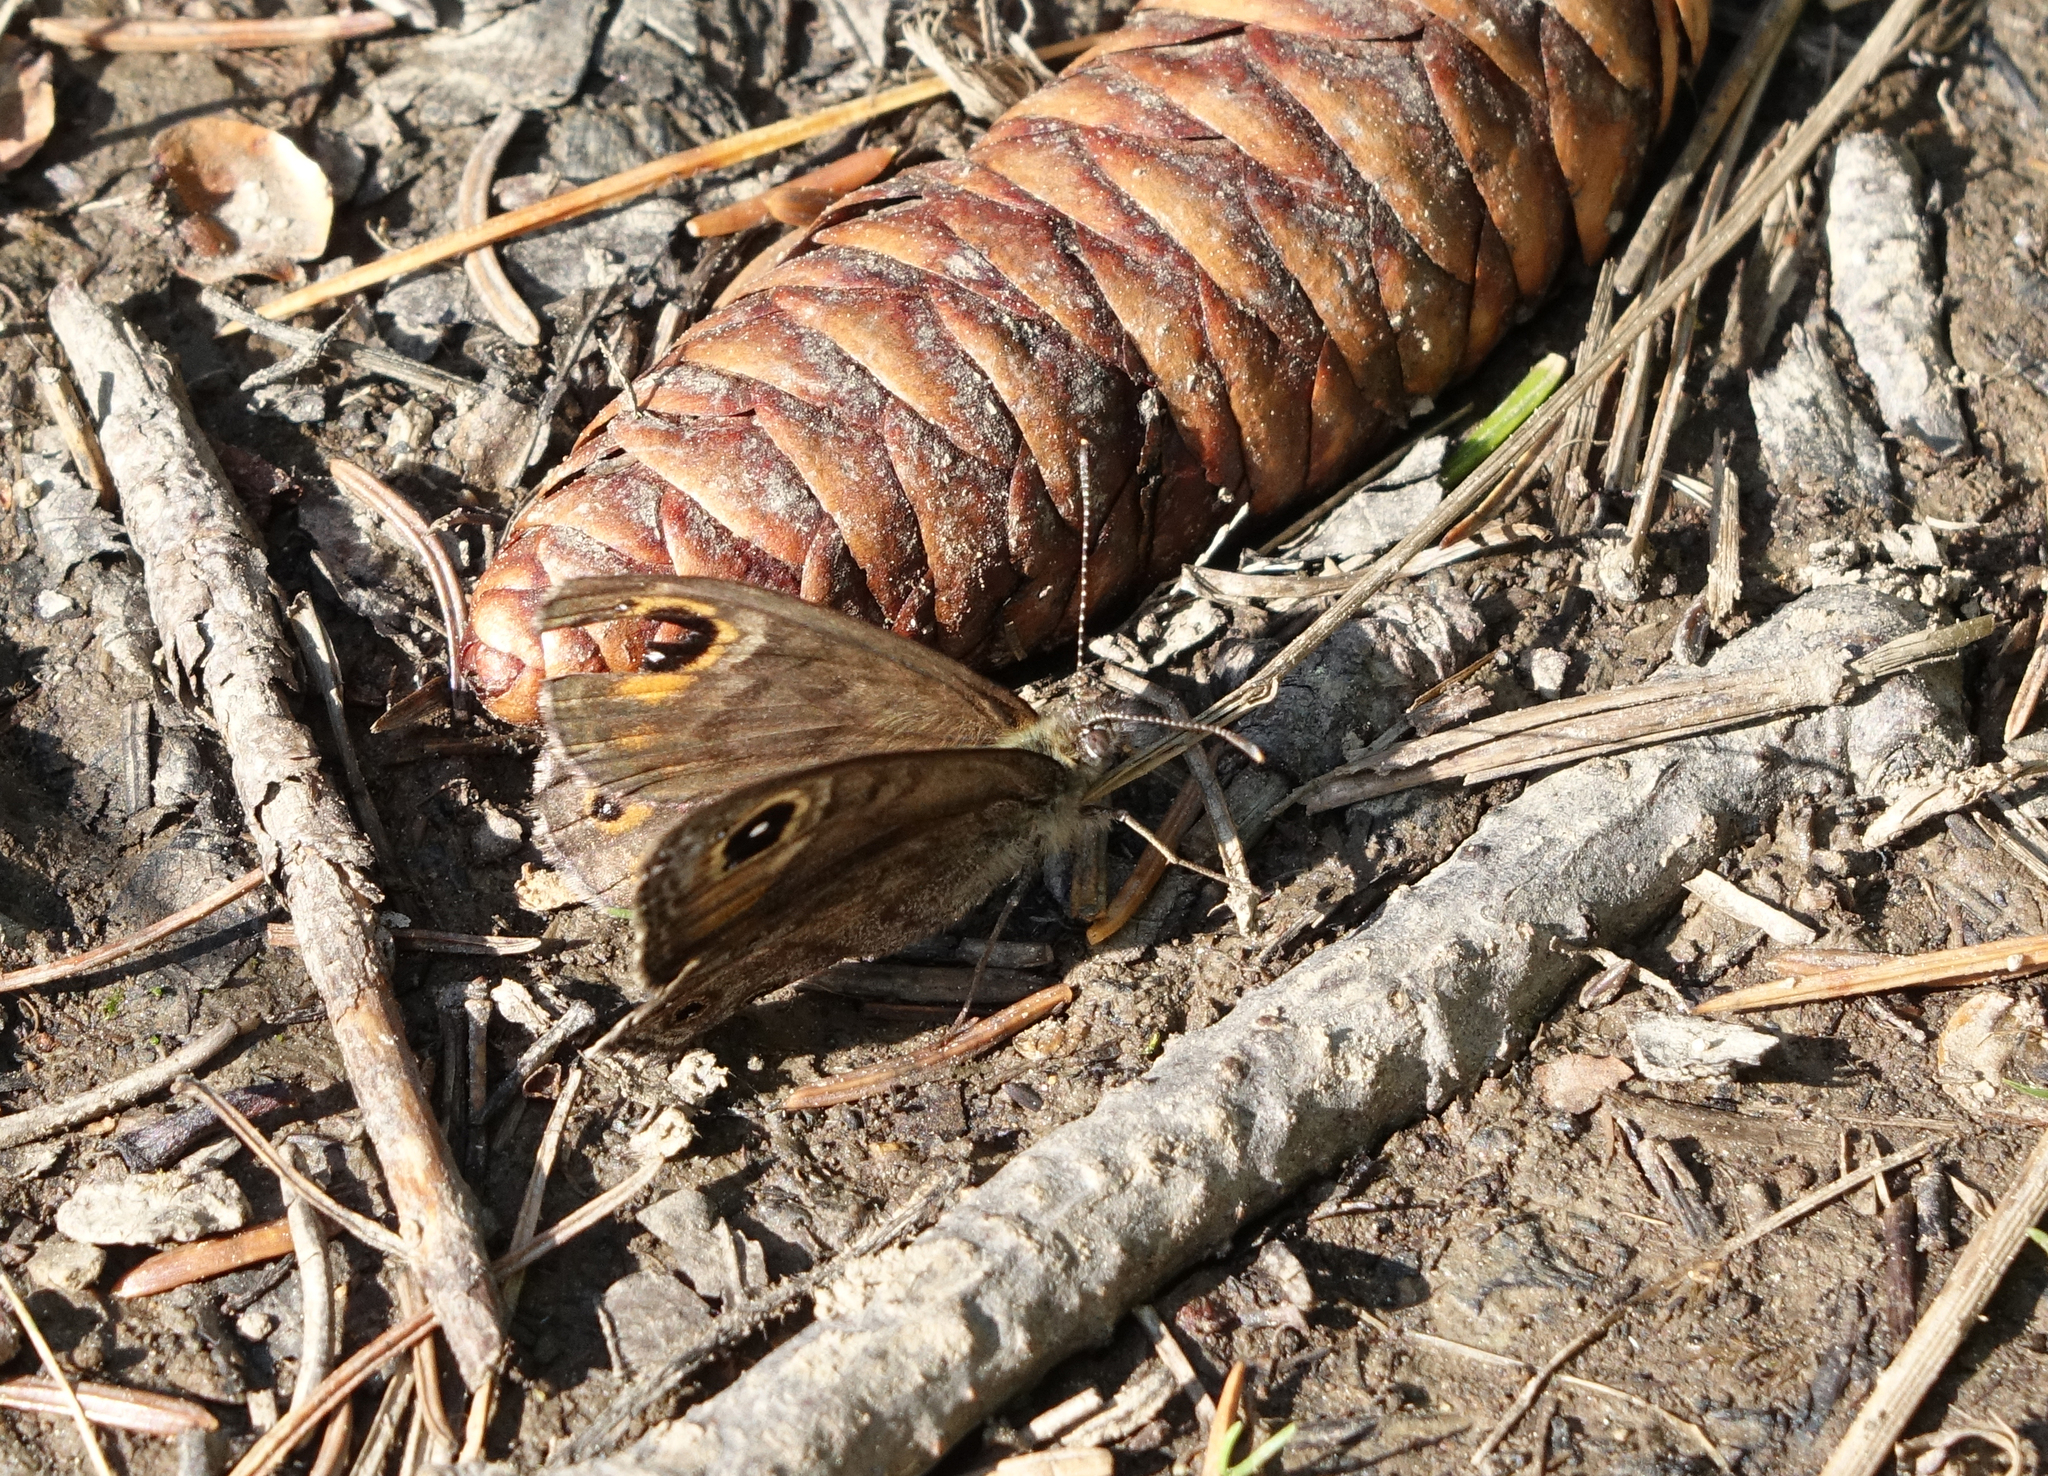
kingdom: Animalia
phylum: Arthropoda
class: Insecta
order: Lepidoptera
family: Nymphalidae
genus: Pararge
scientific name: Pararge petropolitana
